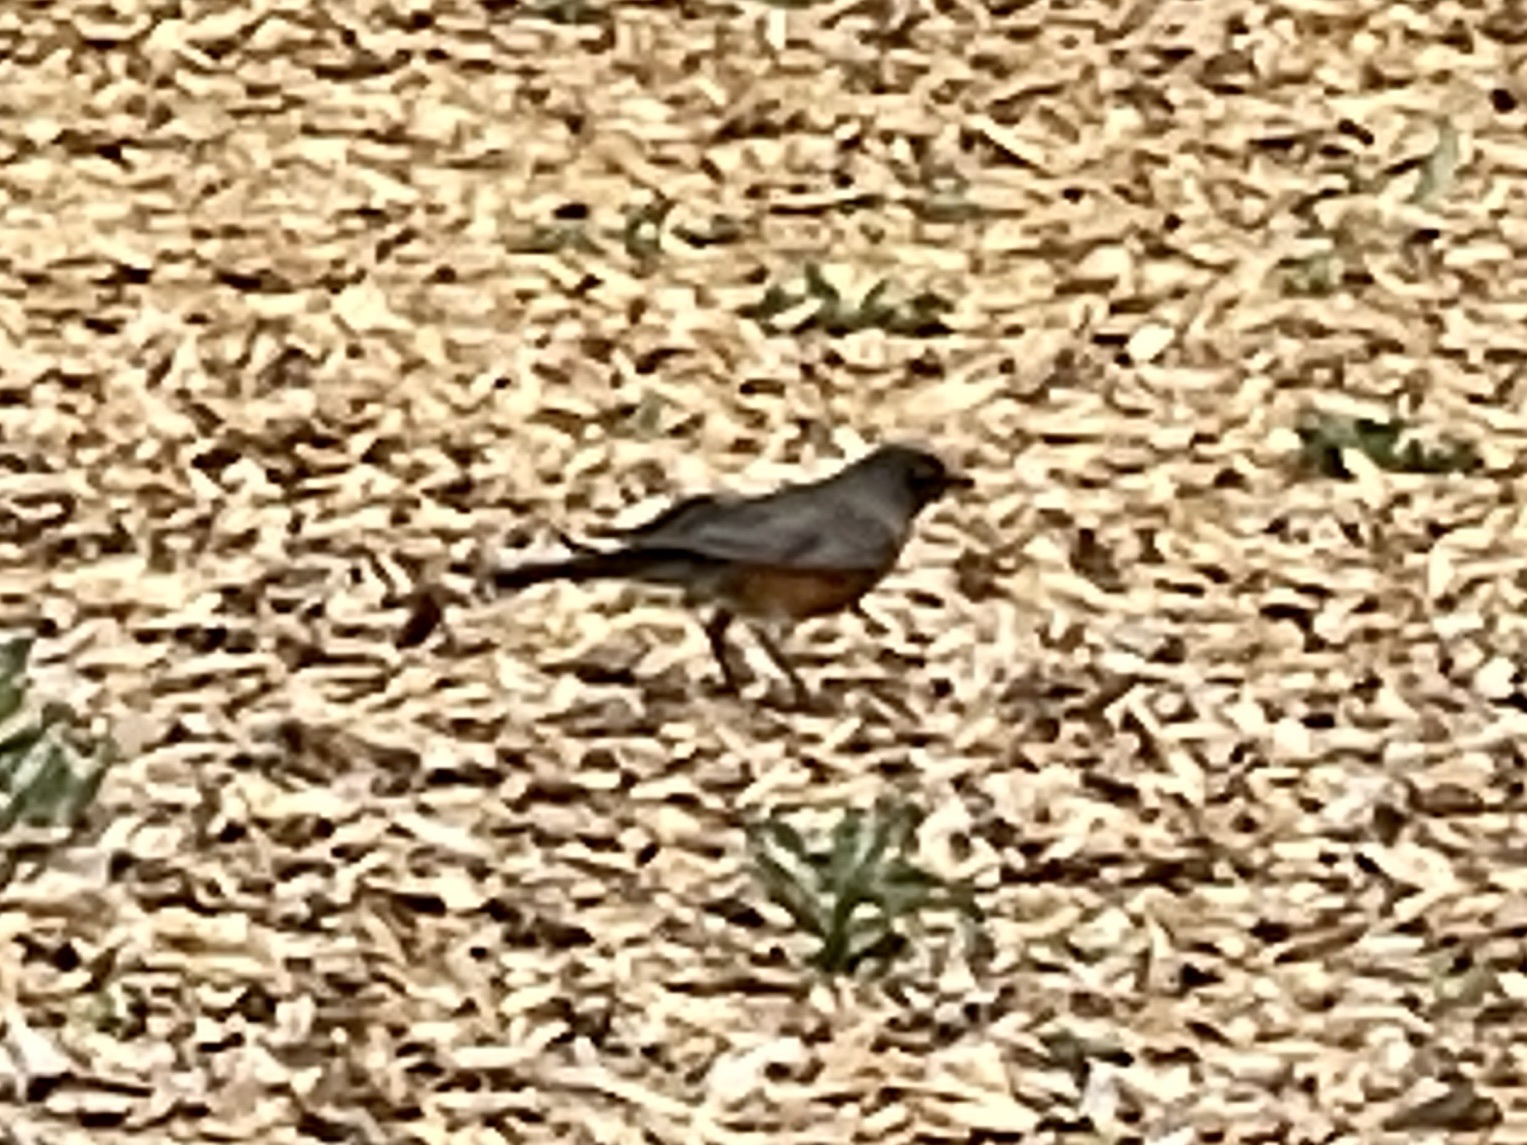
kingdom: Animalia
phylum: Chordata
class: Aves
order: Passeriformes
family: Turdidae
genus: Turdus
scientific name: Turdus migratorius
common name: American robin
